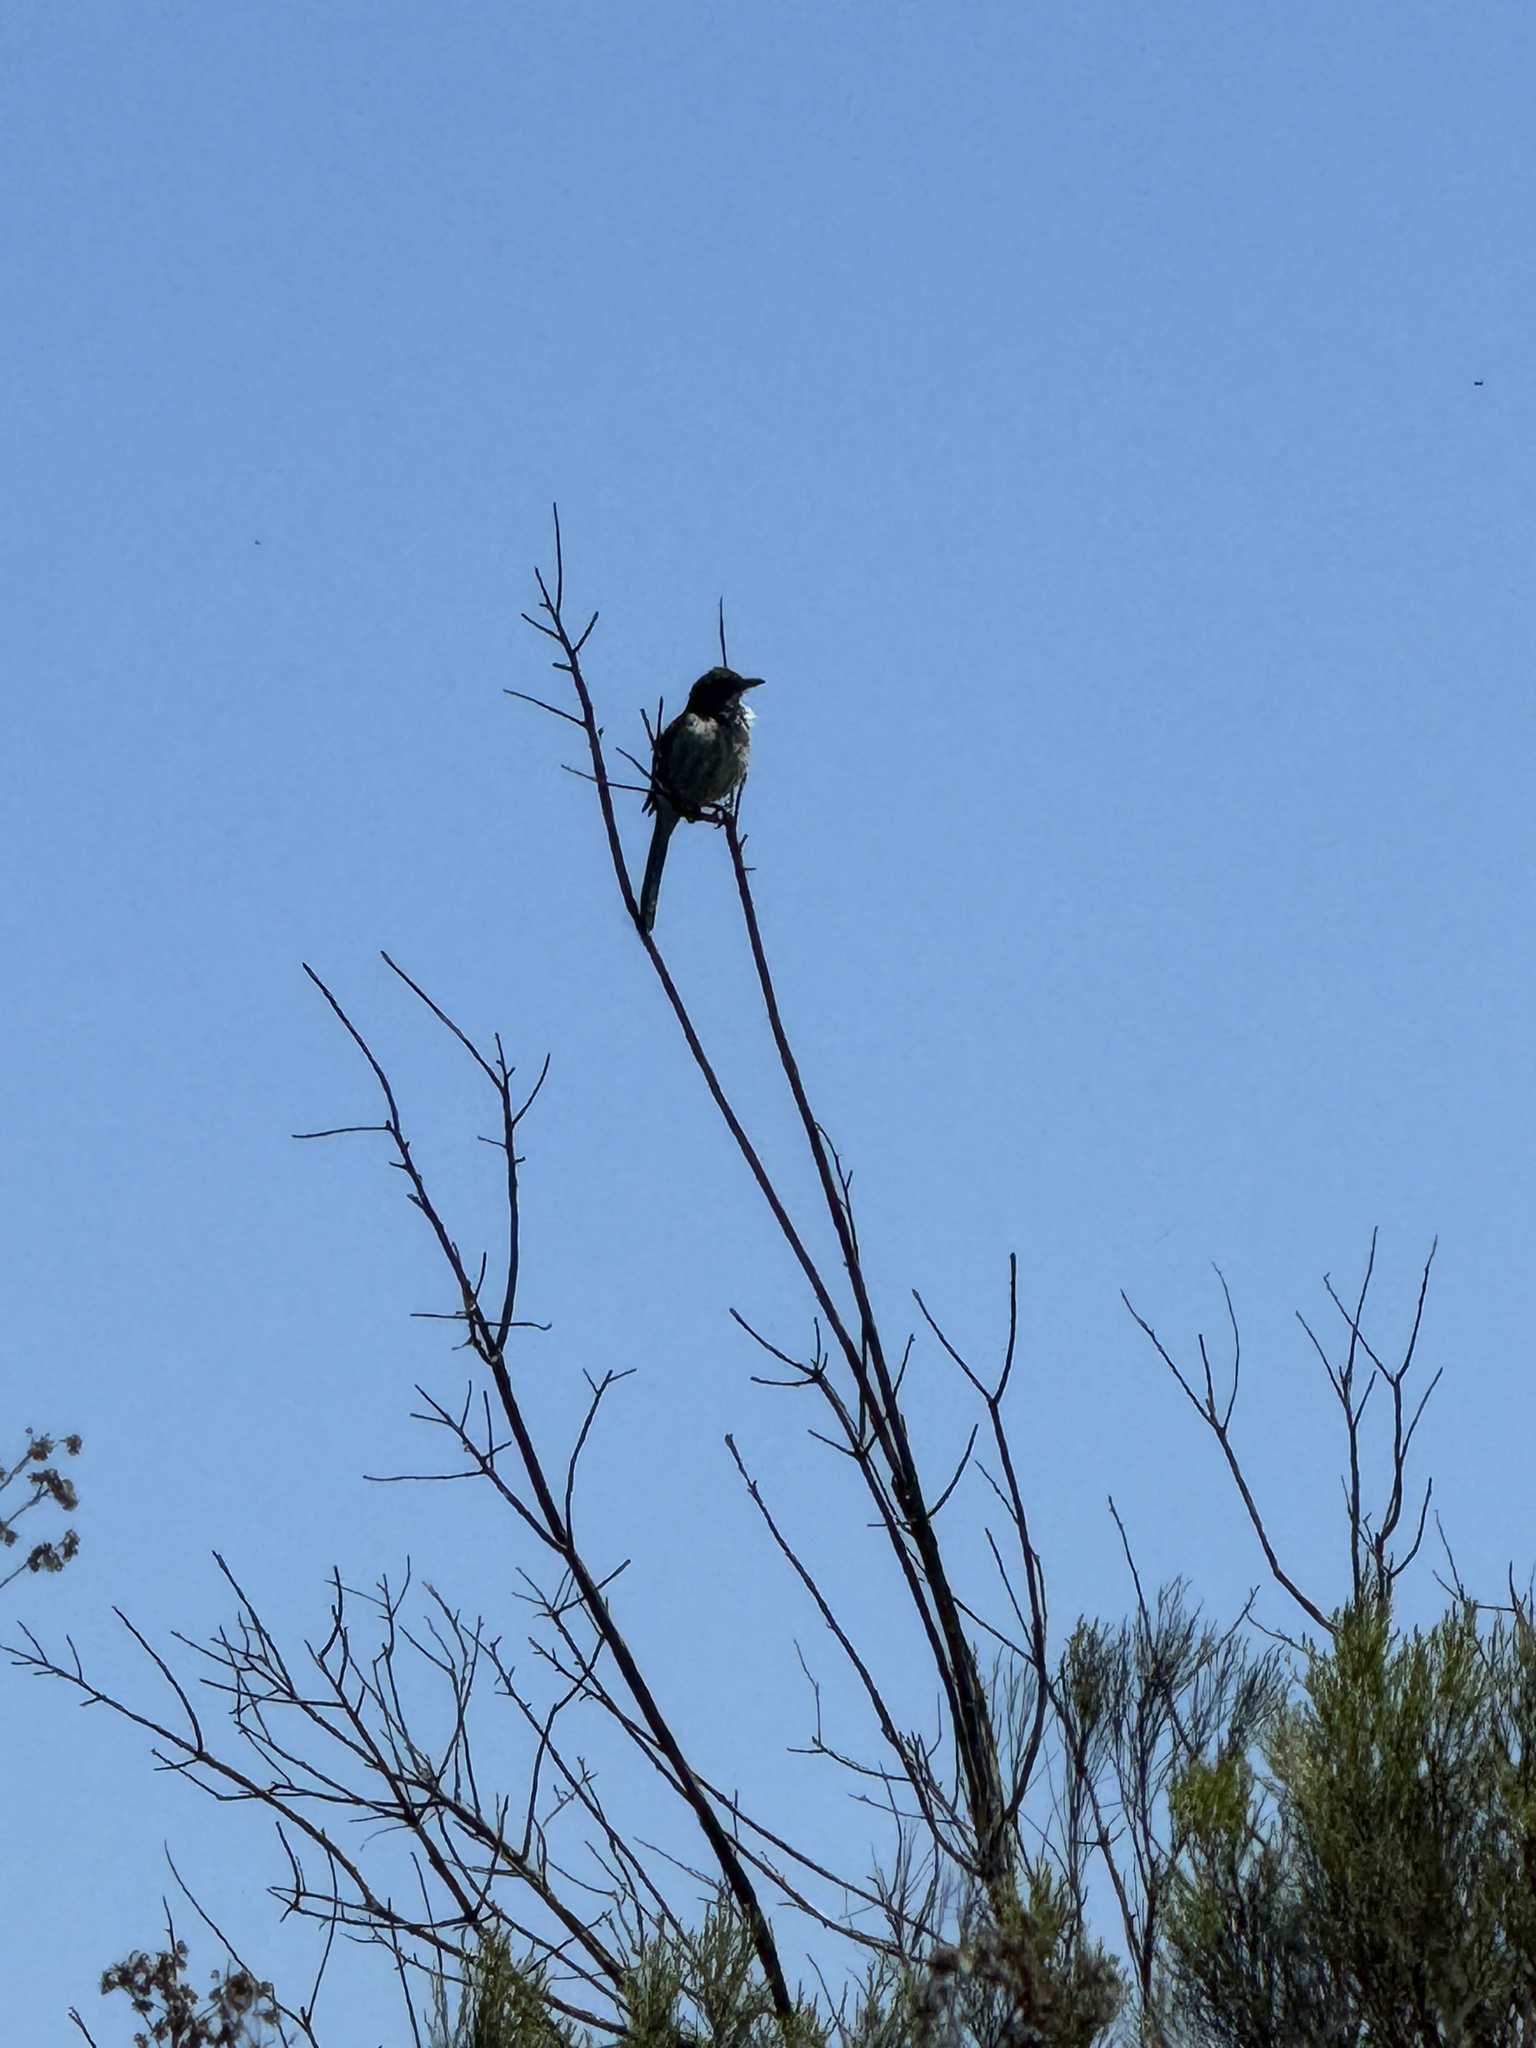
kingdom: Animalia
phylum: Chordata
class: Aves
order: Passeriformes
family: Corvidae
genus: Aphelocoma
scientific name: Aphelocoma californica
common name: California scrub-jay
